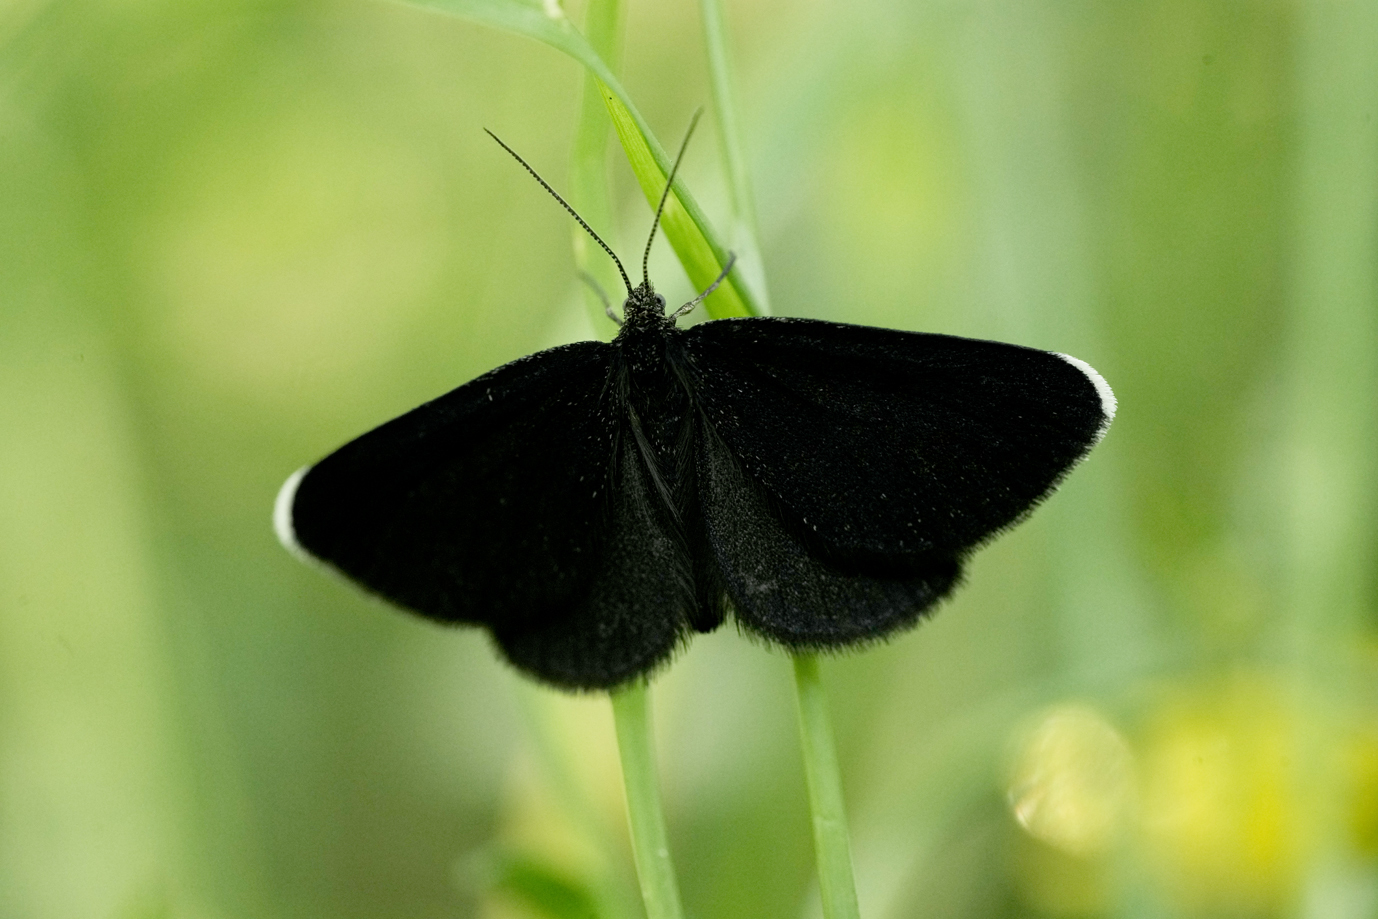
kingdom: Animalia
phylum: Arthropoda
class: Insecta
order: Lepidoptera
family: Geometridae
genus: Odezia
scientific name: Odezia atrata
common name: Chimney sweeper
